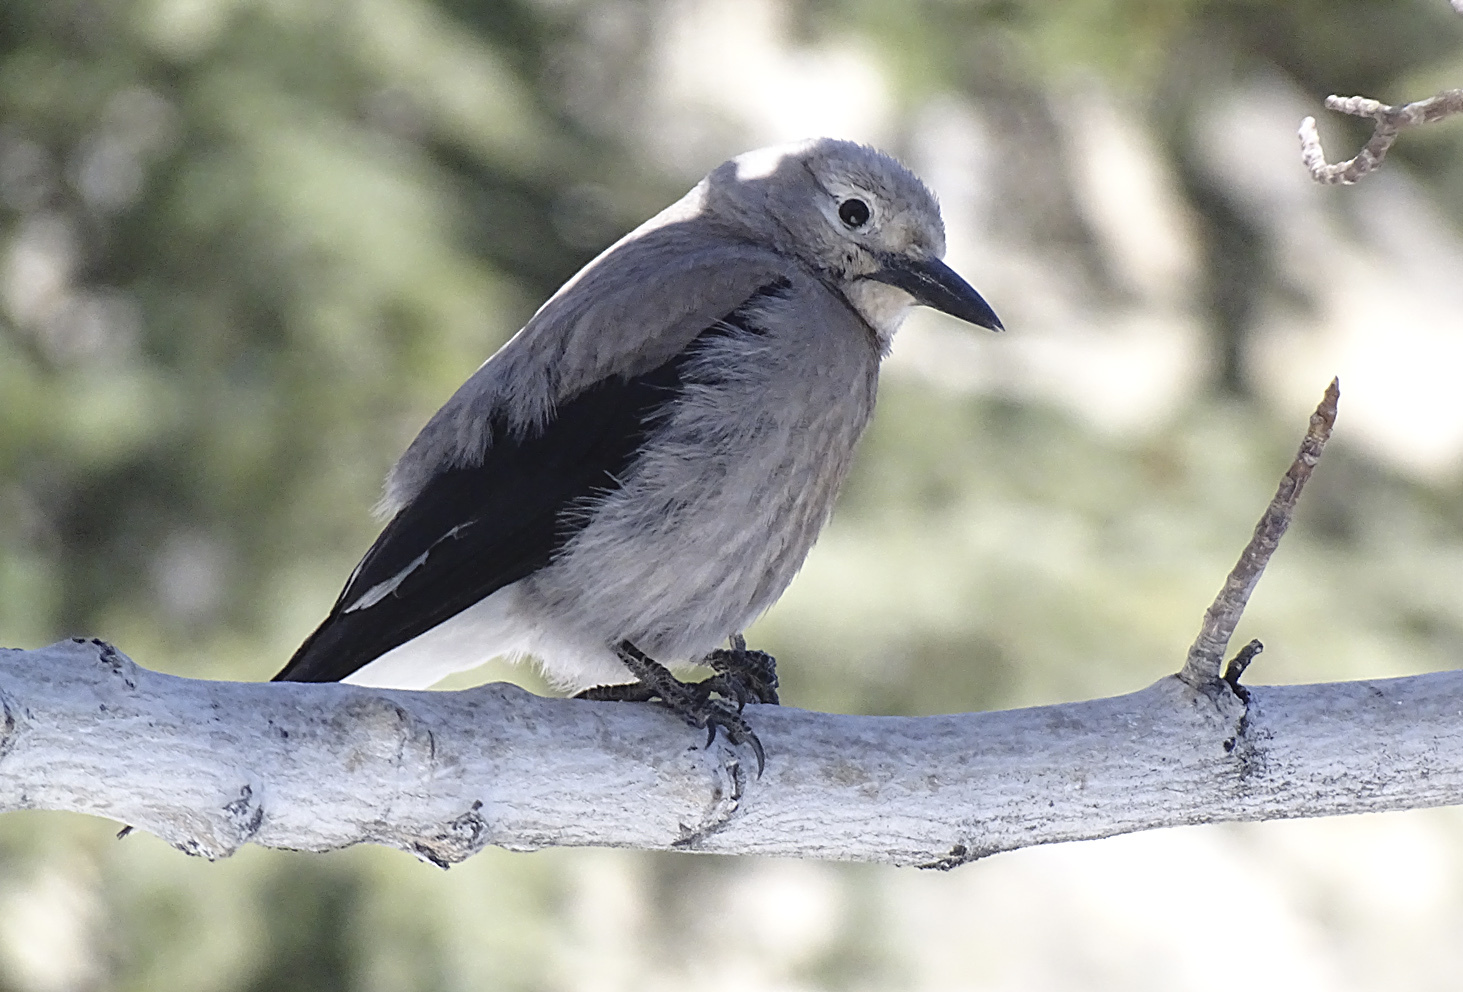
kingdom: Animalia
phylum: Chordata
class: Aves
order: Passeriformes
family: Corvidae
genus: Nucifraga
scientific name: Nucifraga columbiana
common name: Clark's nutcracker
